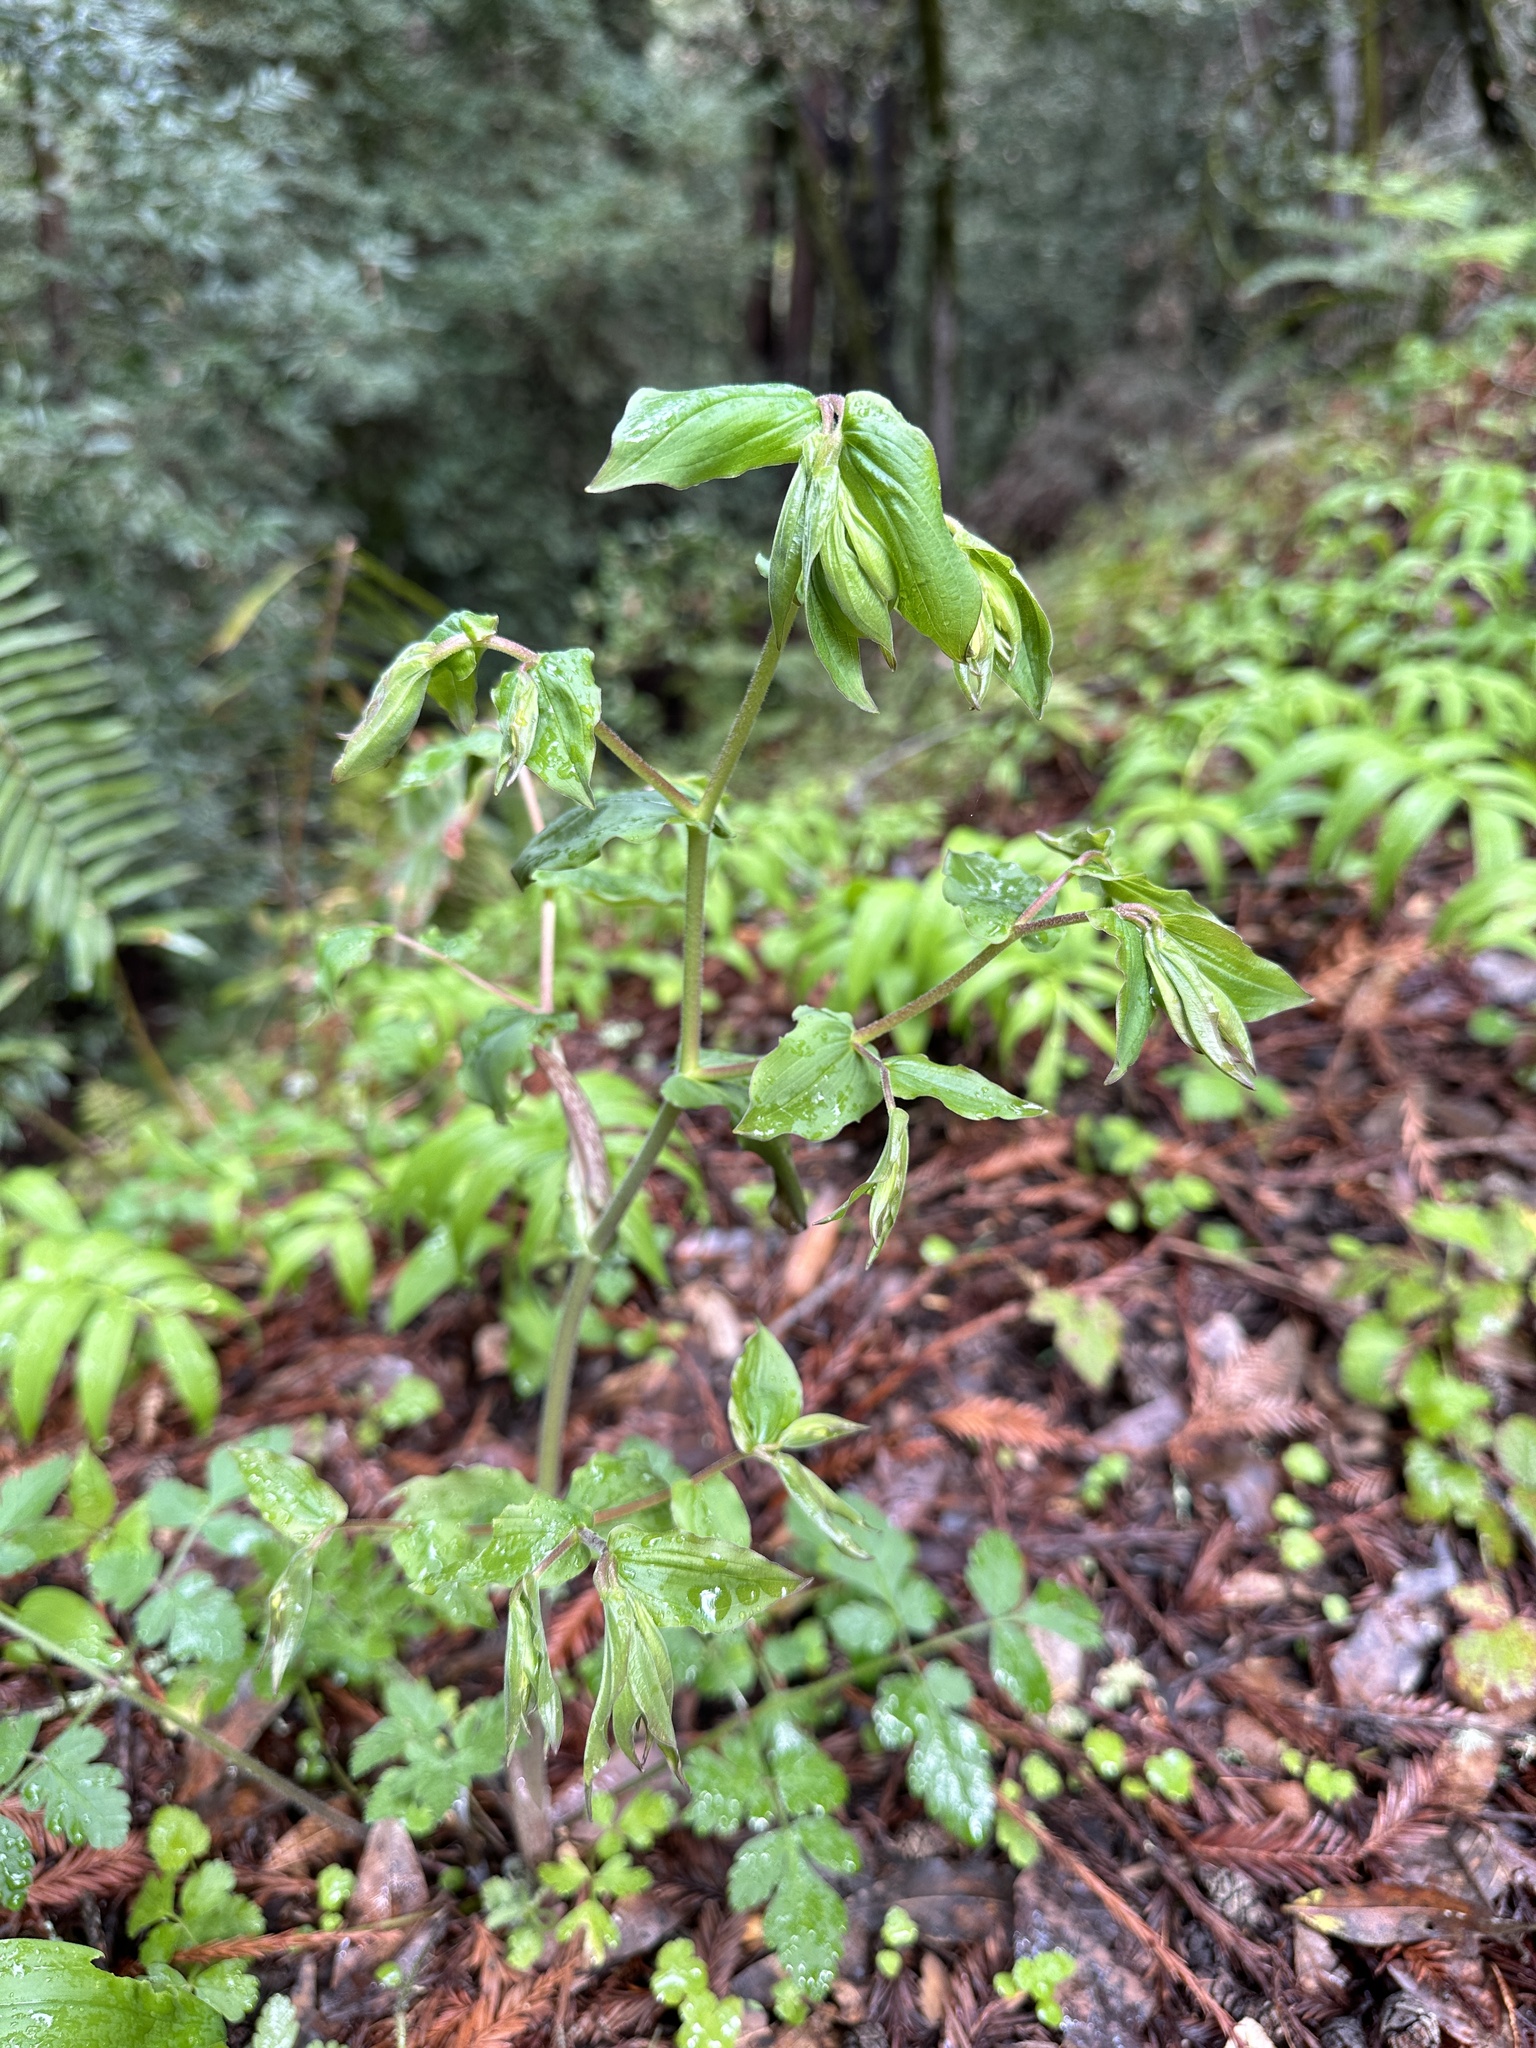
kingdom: Plantae
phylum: Tracheophyta
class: Liliopsida
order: Liliales
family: Liliaceae
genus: Prosartes
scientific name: Prosartes hookeri
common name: Fairy-bells
